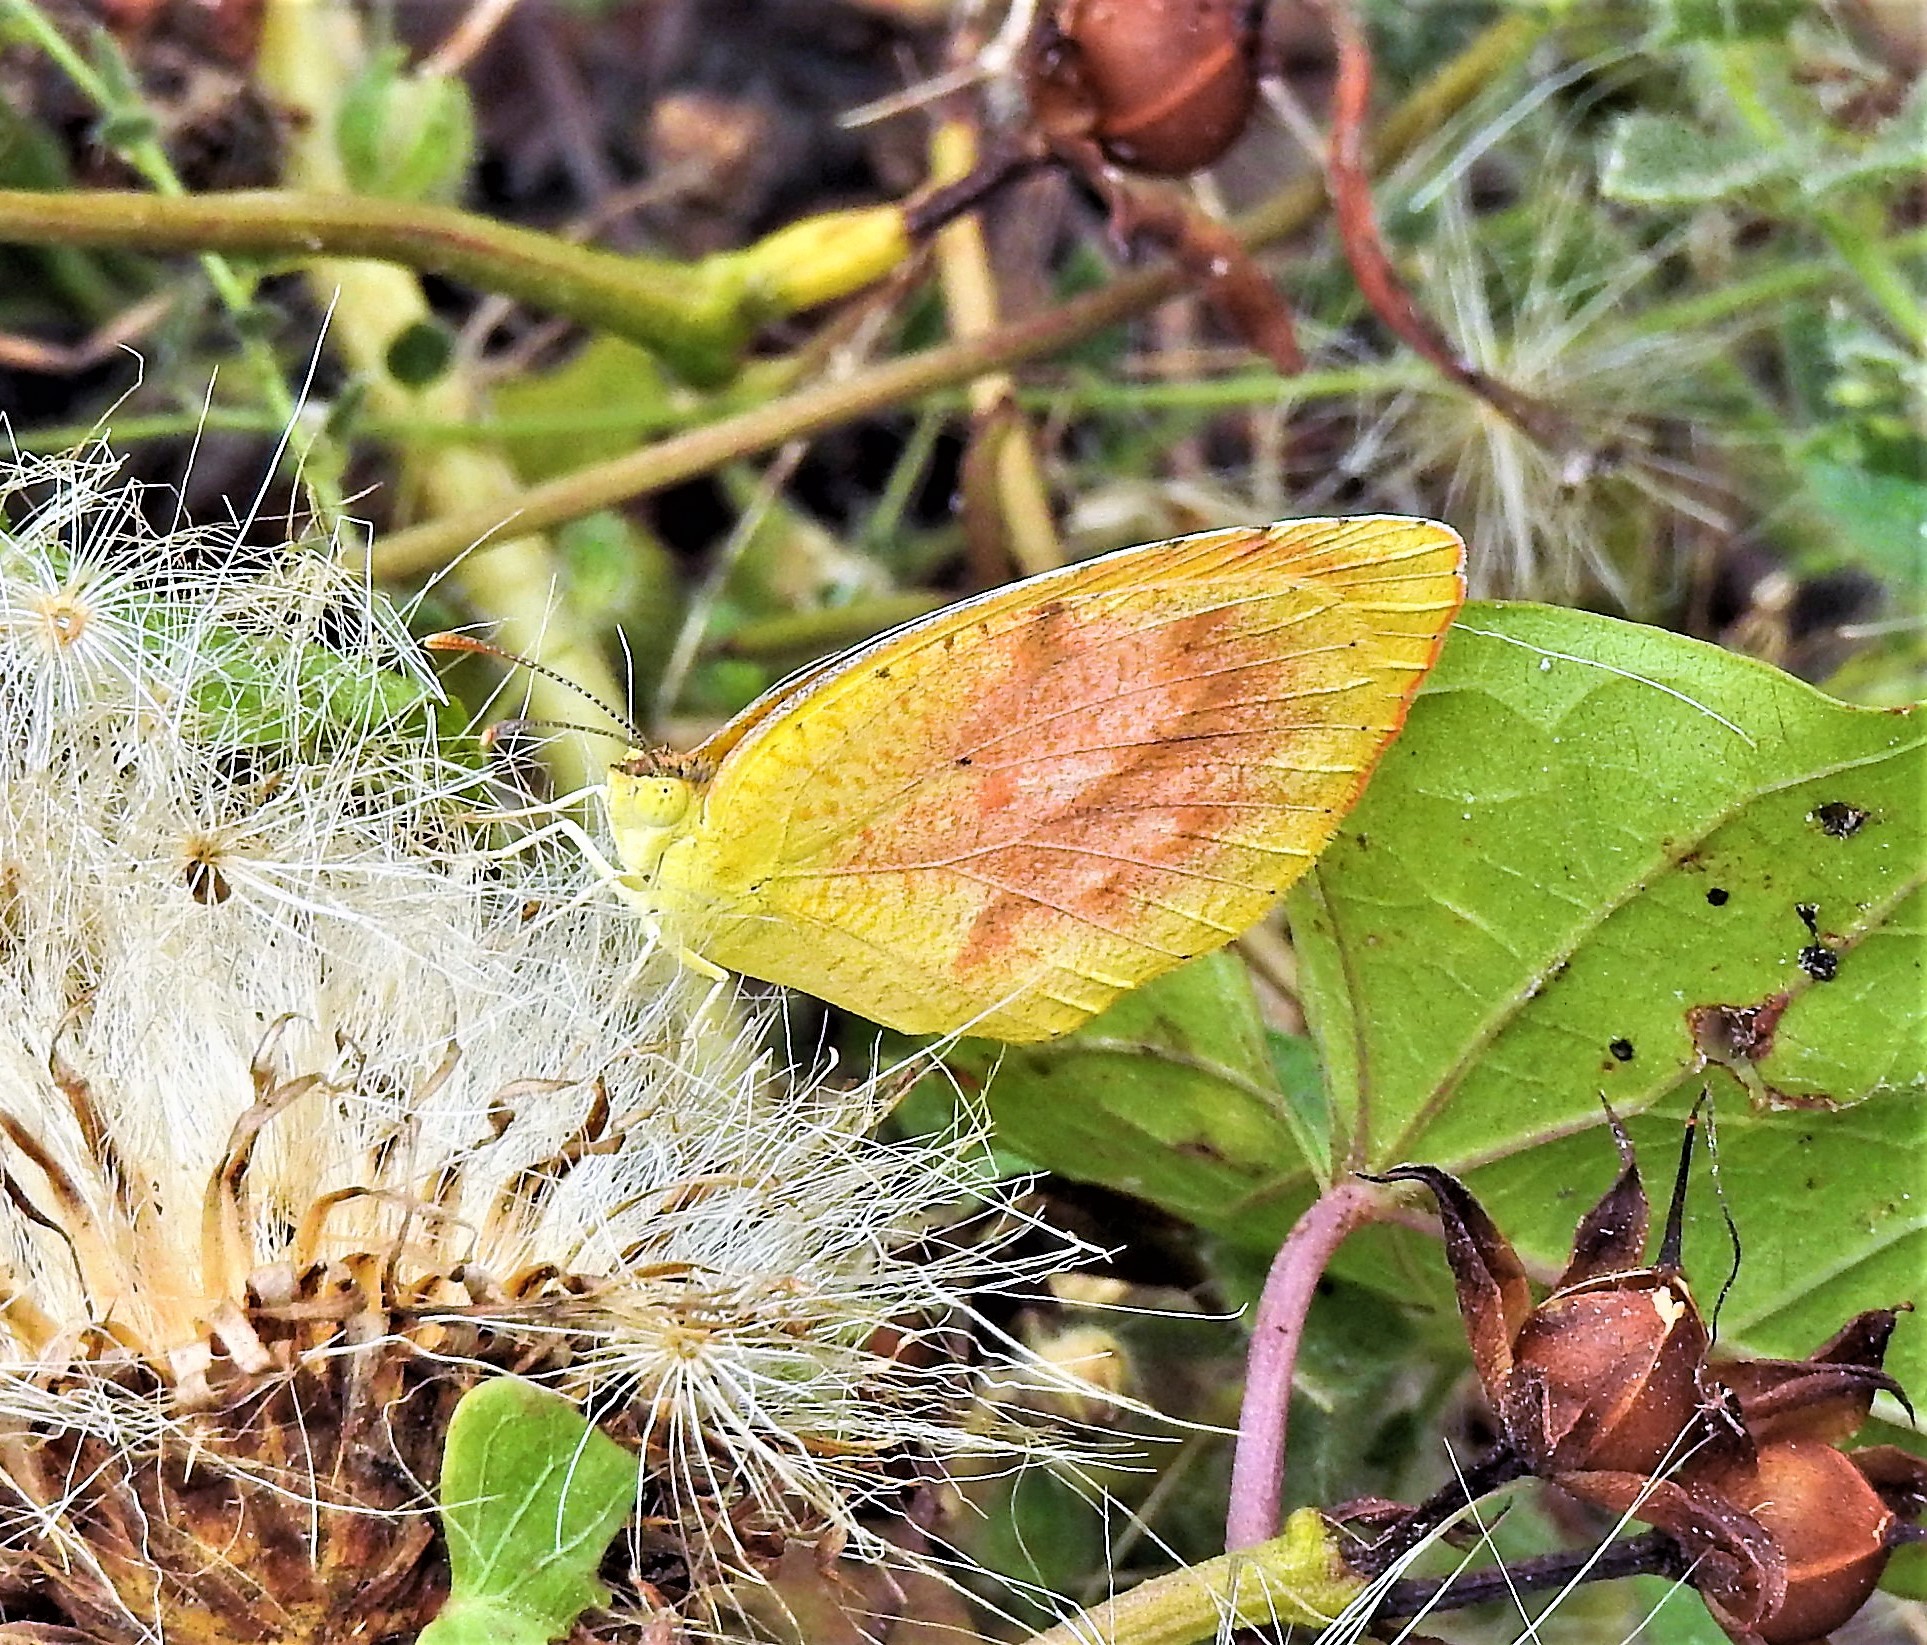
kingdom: Animalia
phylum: Arthropoda
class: Insecta
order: Lepidoptera
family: Pieridae
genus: Abaeis
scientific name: Abaeis nicippe
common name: Sleepy orange
